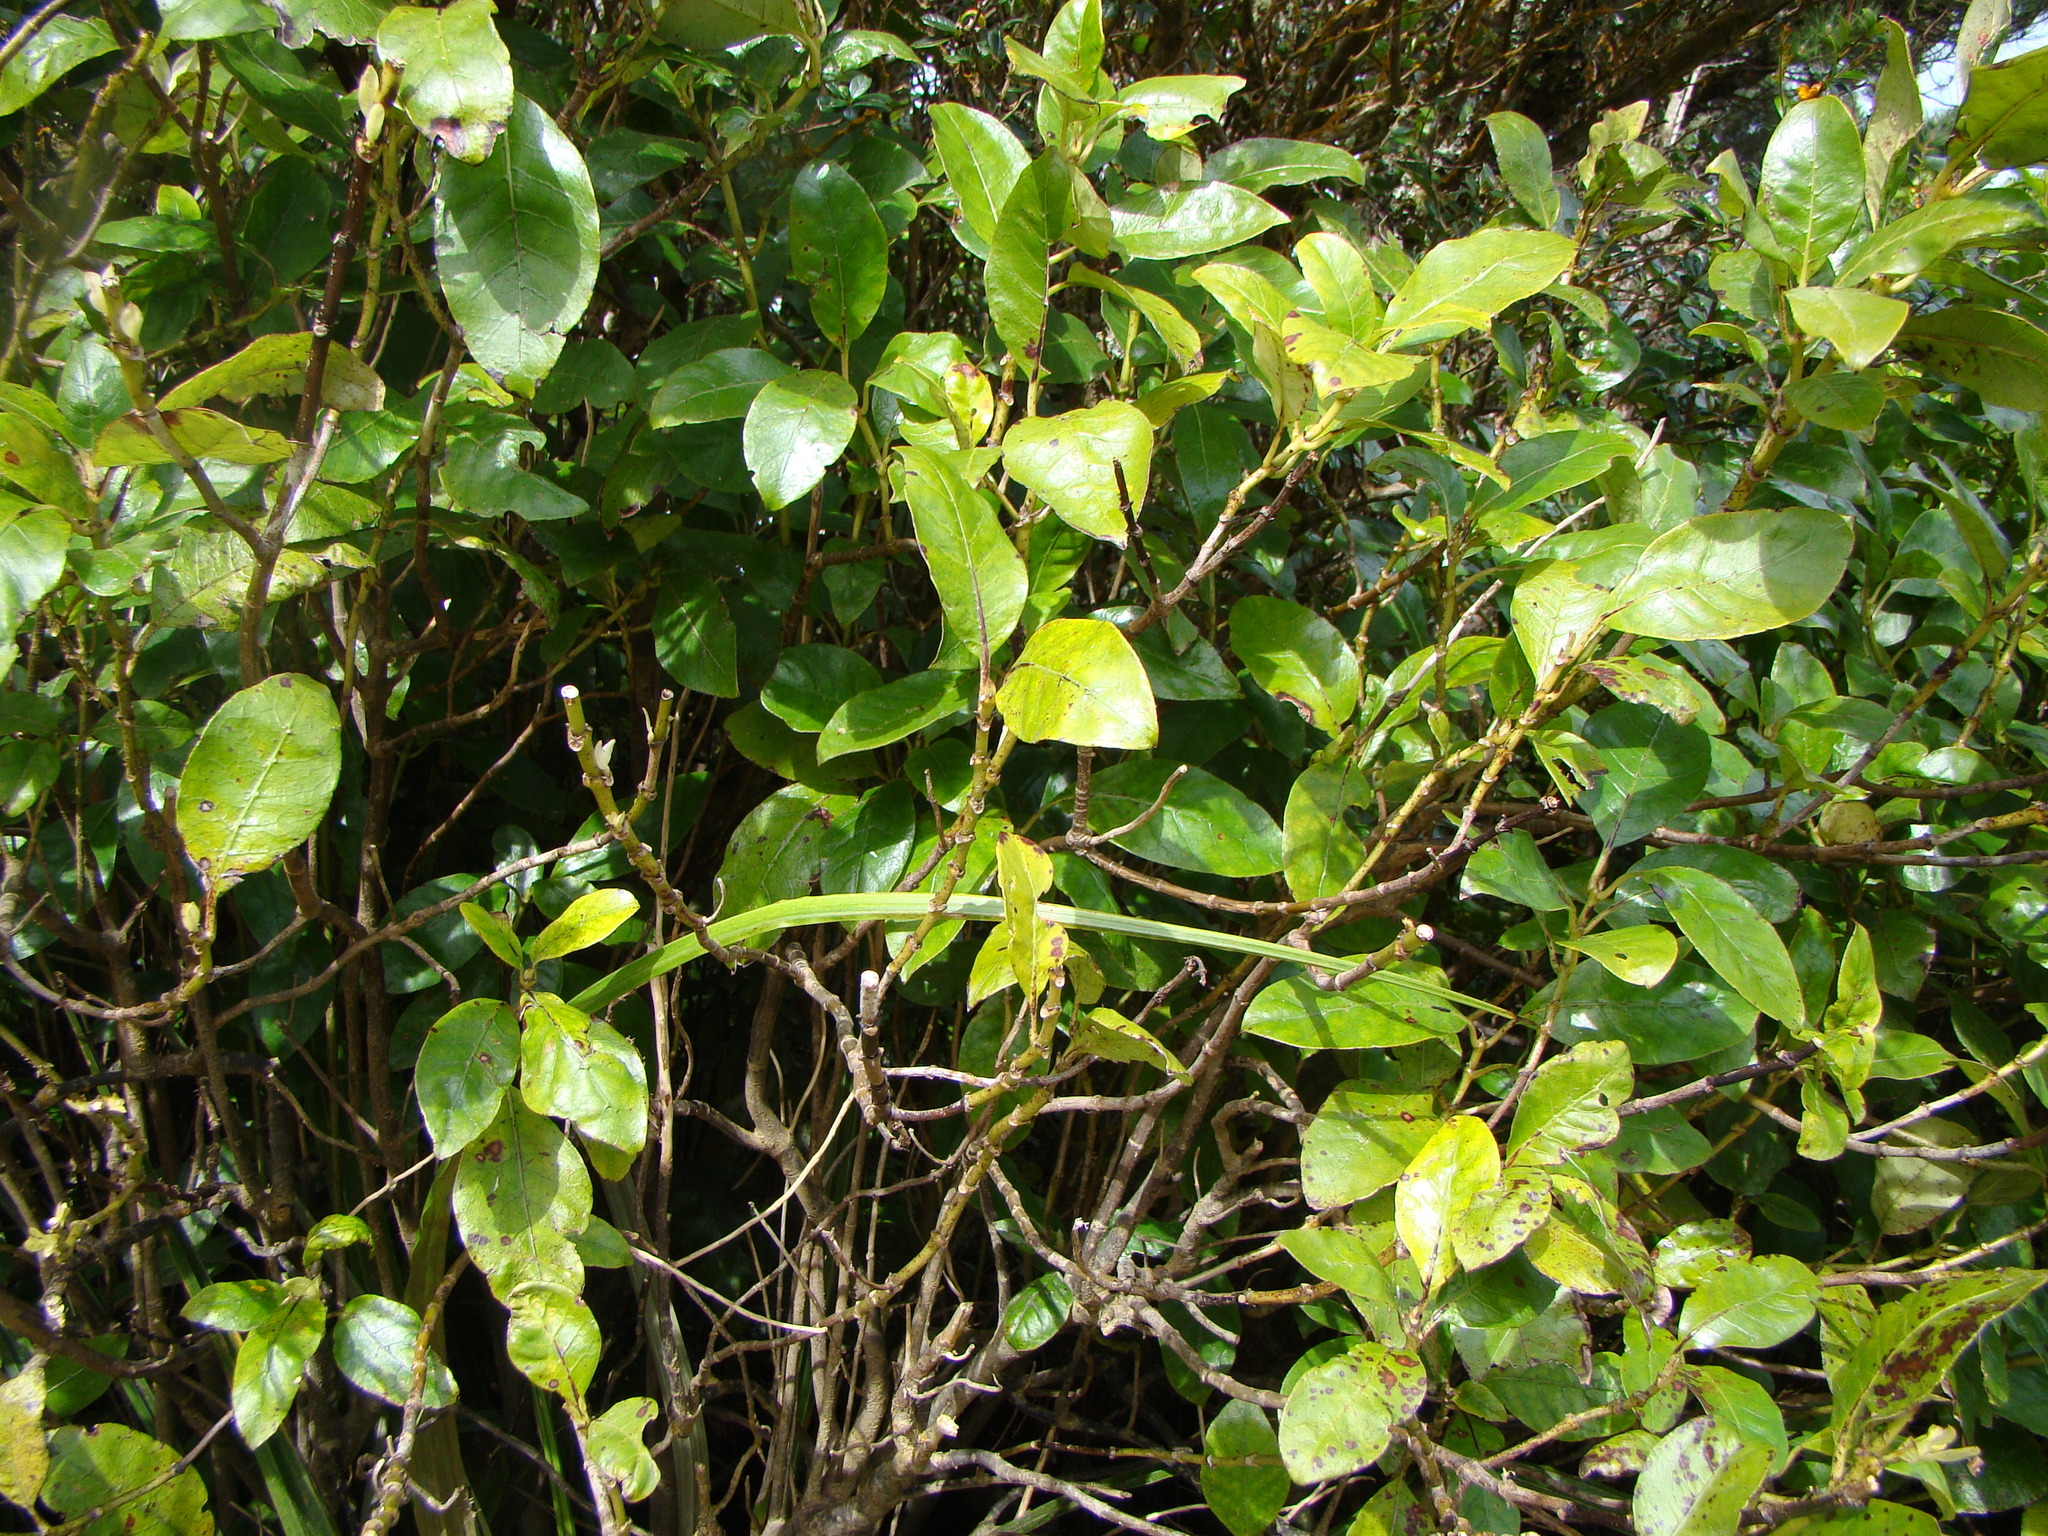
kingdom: Plantae
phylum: Tracheophyta
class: Magnoliopsida
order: Gentianales
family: Rubiaceae
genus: Coprosma
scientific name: Coprosma autumnalis
